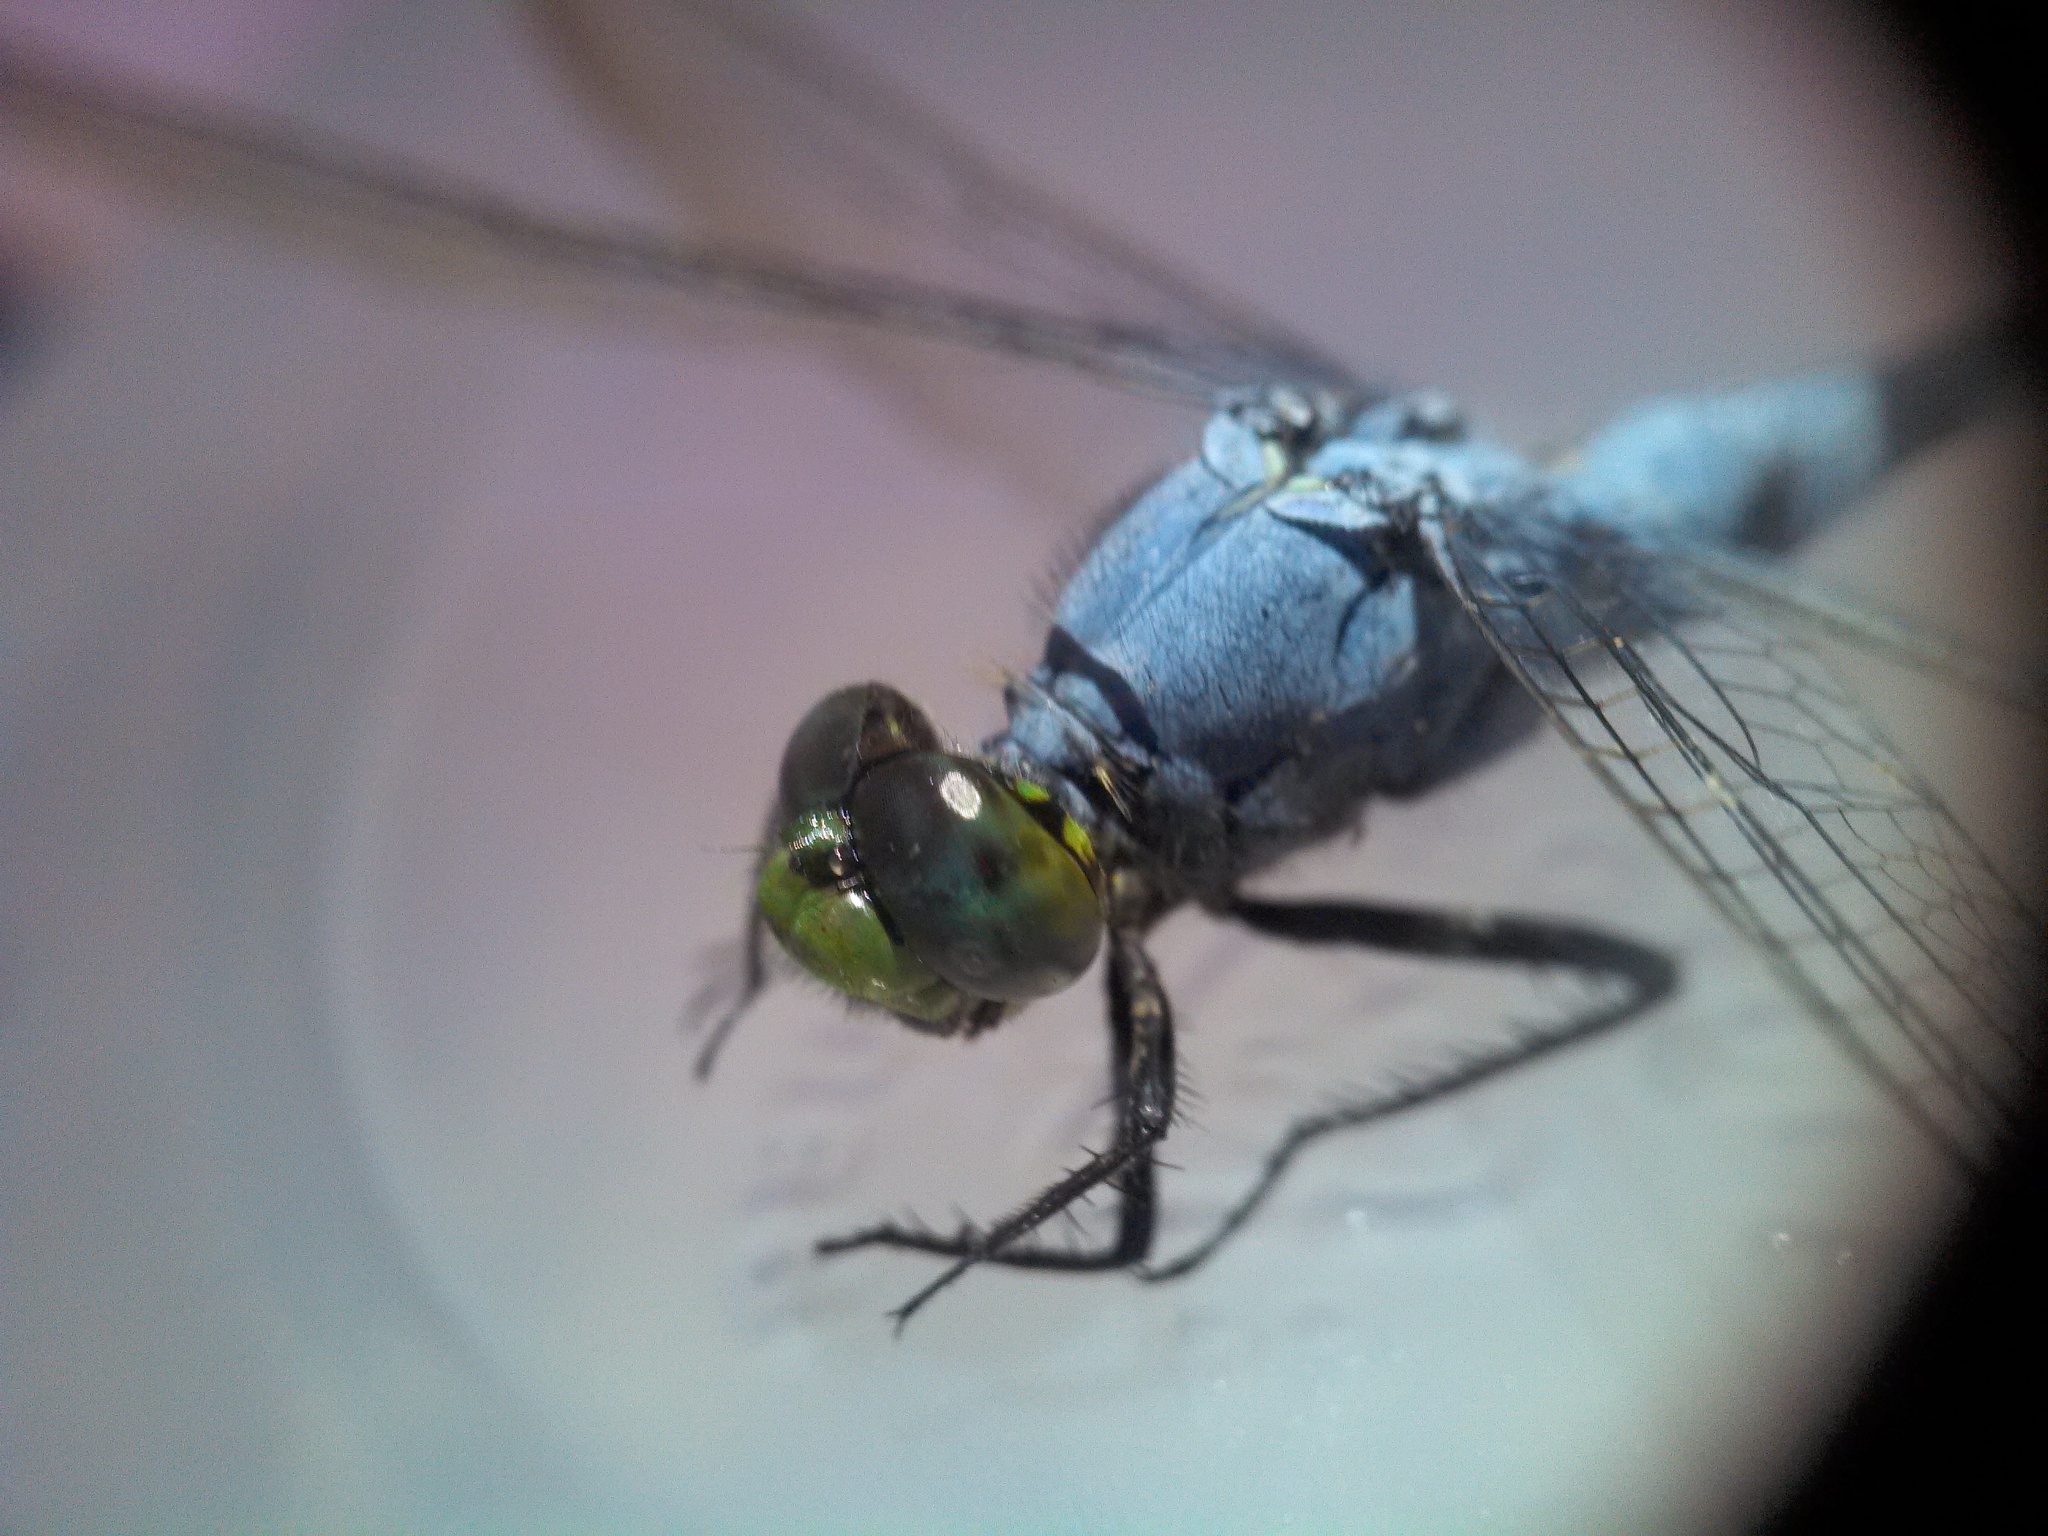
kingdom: Animalia
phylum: Arthropoda
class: Insecta
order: Odonata
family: Libellulidae
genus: Erythemis
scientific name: Erythemis simplicicollis
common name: Eastern pondhawk
